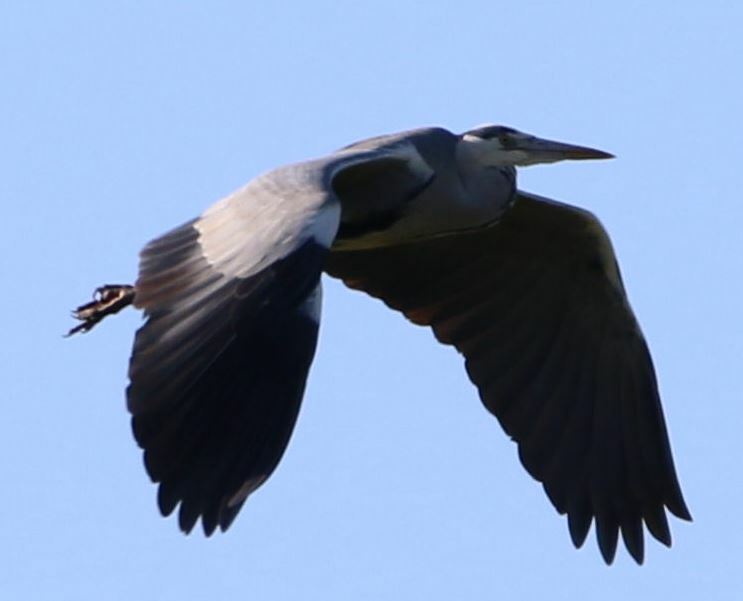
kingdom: Animalia
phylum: Chordata
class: Aves
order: Pelecaniformes
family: Ardeidae
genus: Ardea
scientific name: Ardea cinerea
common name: Grey heron
